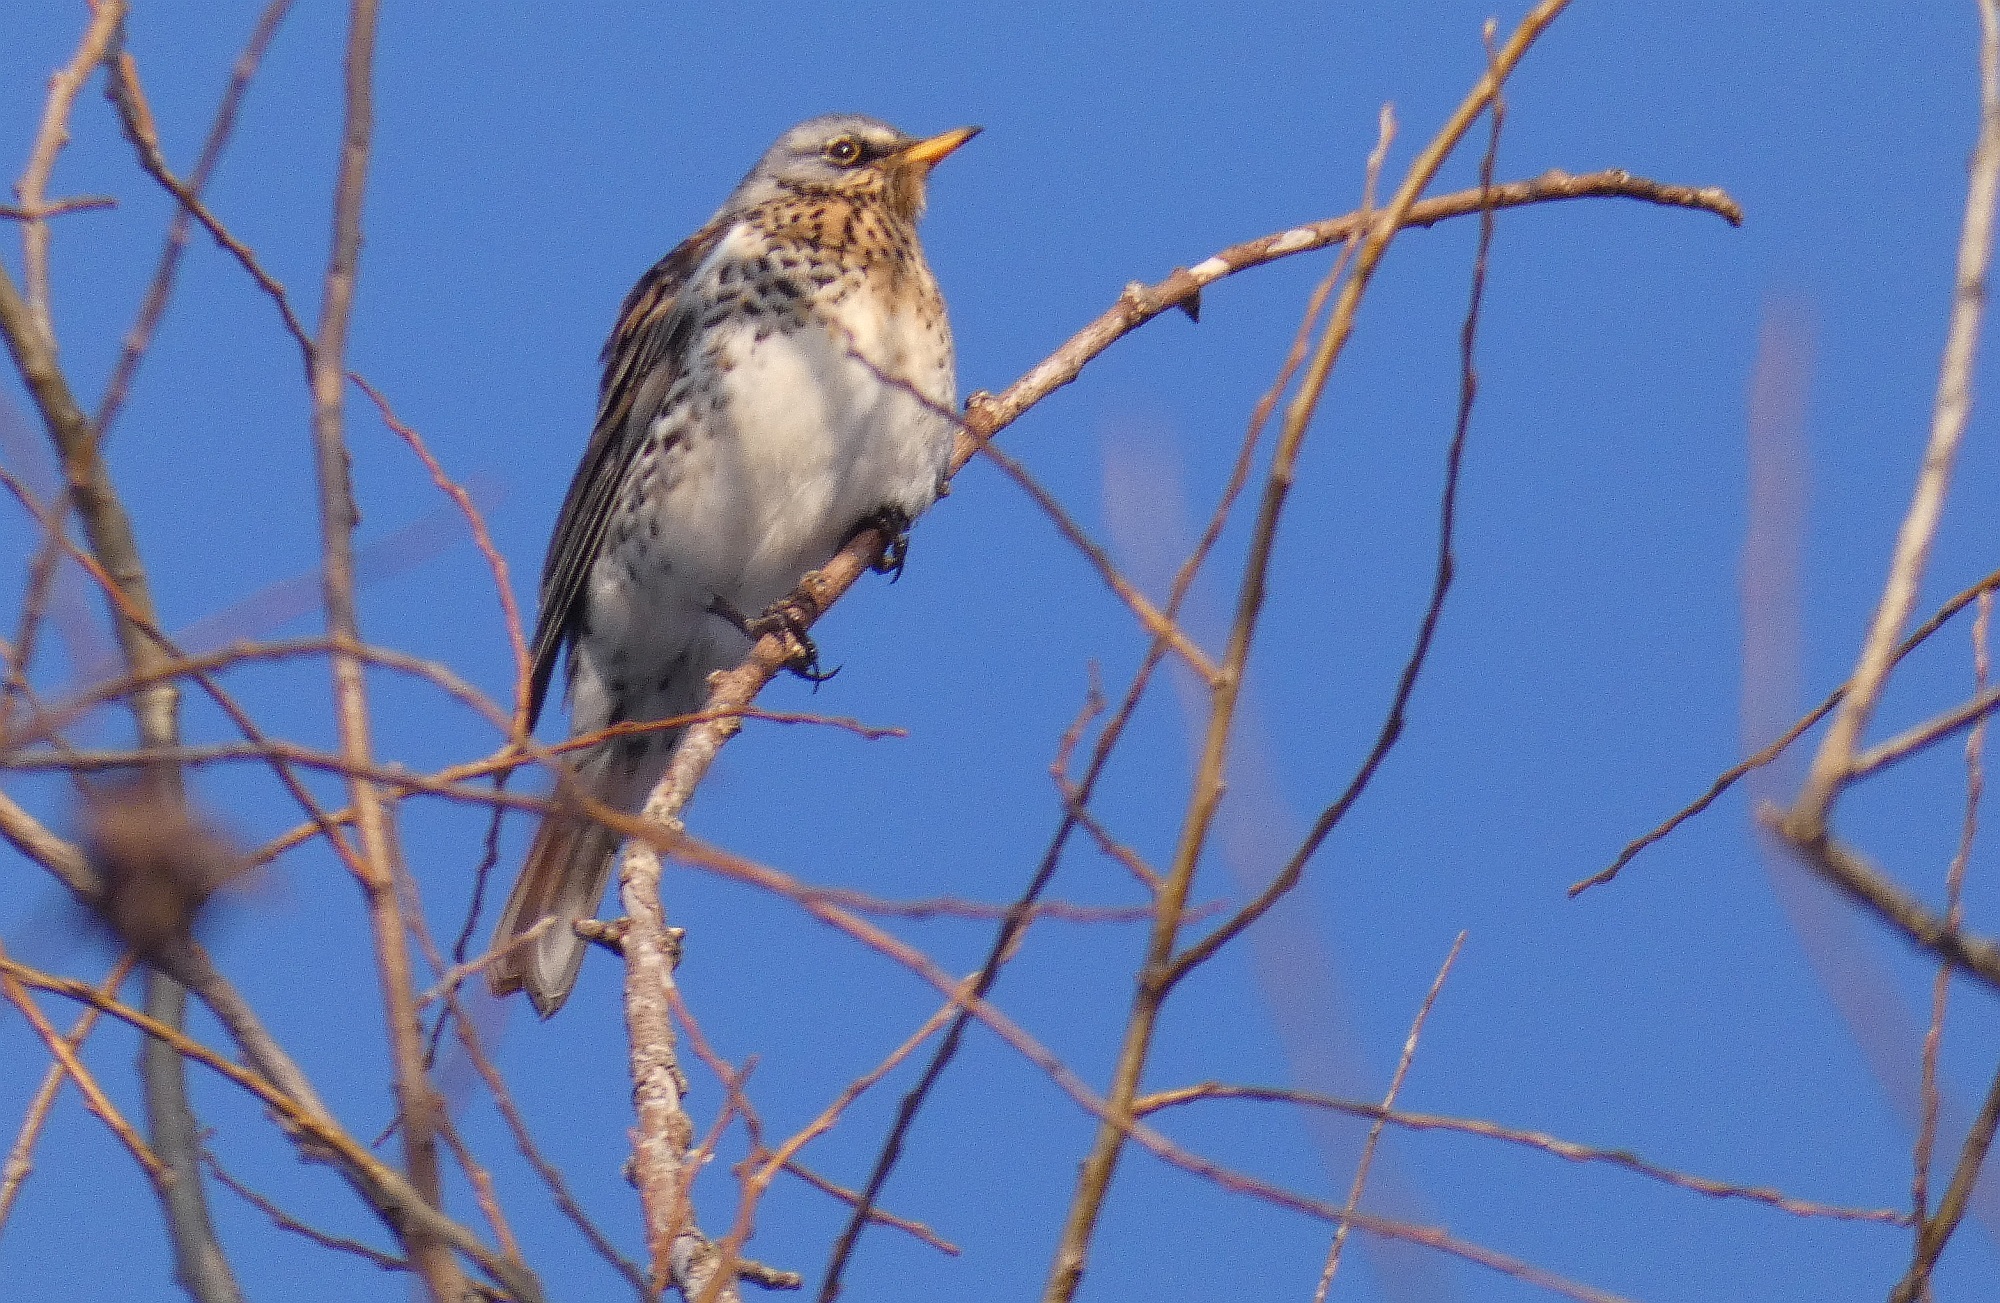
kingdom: Animalia
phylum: Chordata
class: Aves
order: Passeriformes
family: Turdidae
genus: Turdus
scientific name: Turdus pilaris
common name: Fieldfare
